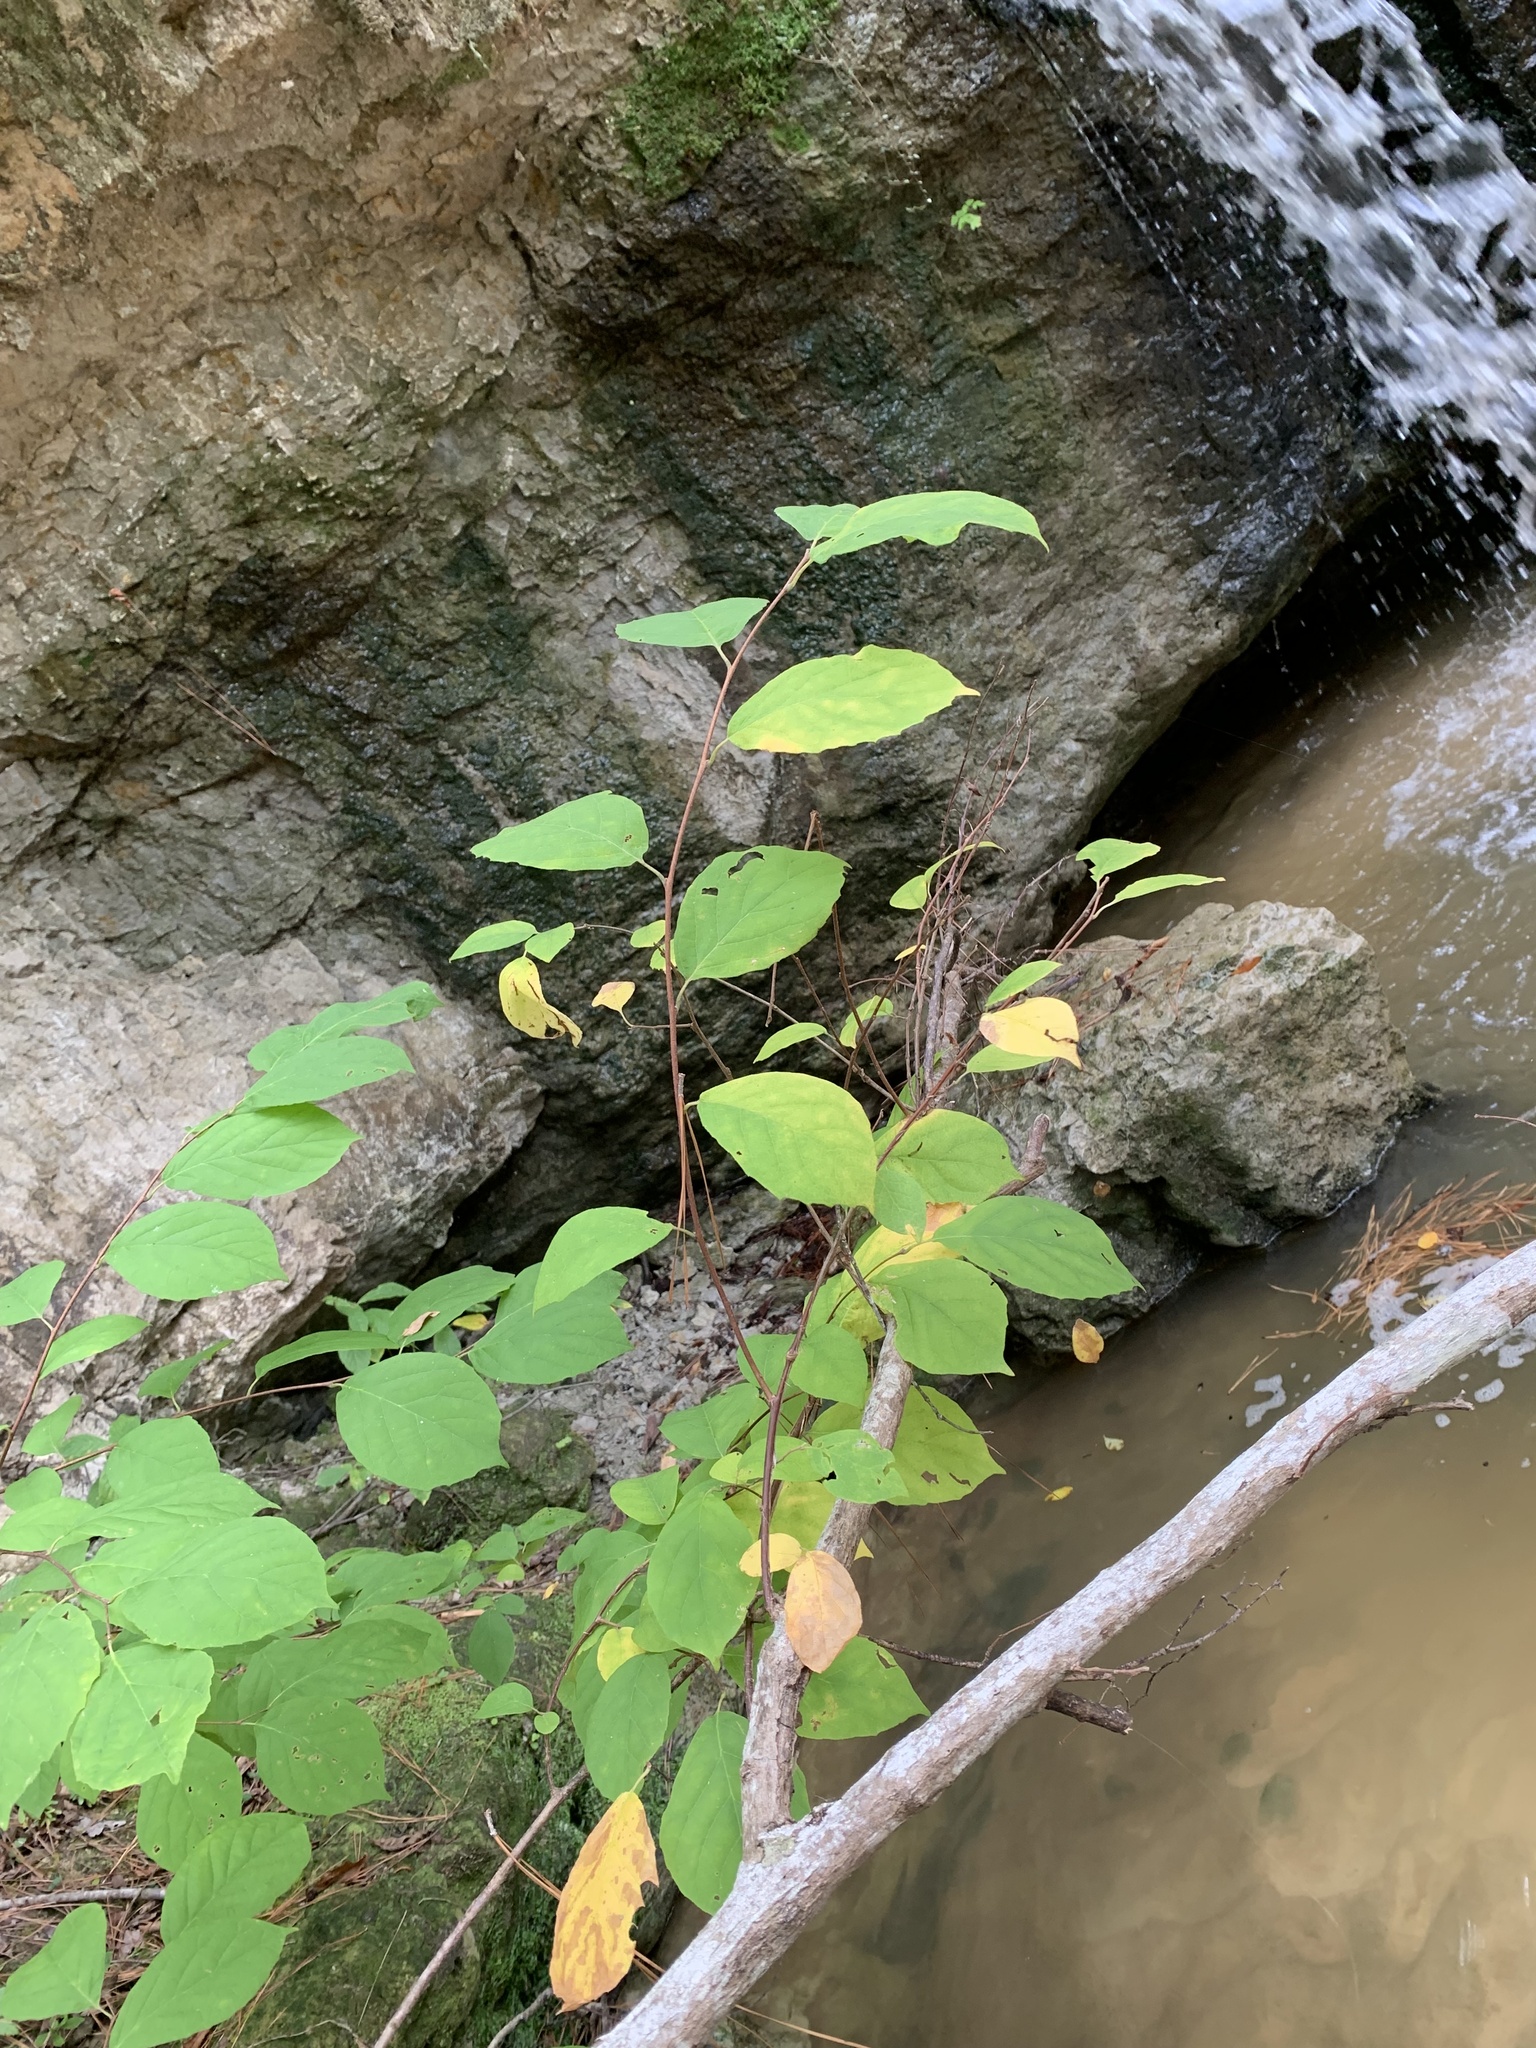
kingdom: Plantae
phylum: Tracheophyta
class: Magnoliopsida
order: Ericales
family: Styracaceae
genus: Halesia
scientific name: Halesia diptera
